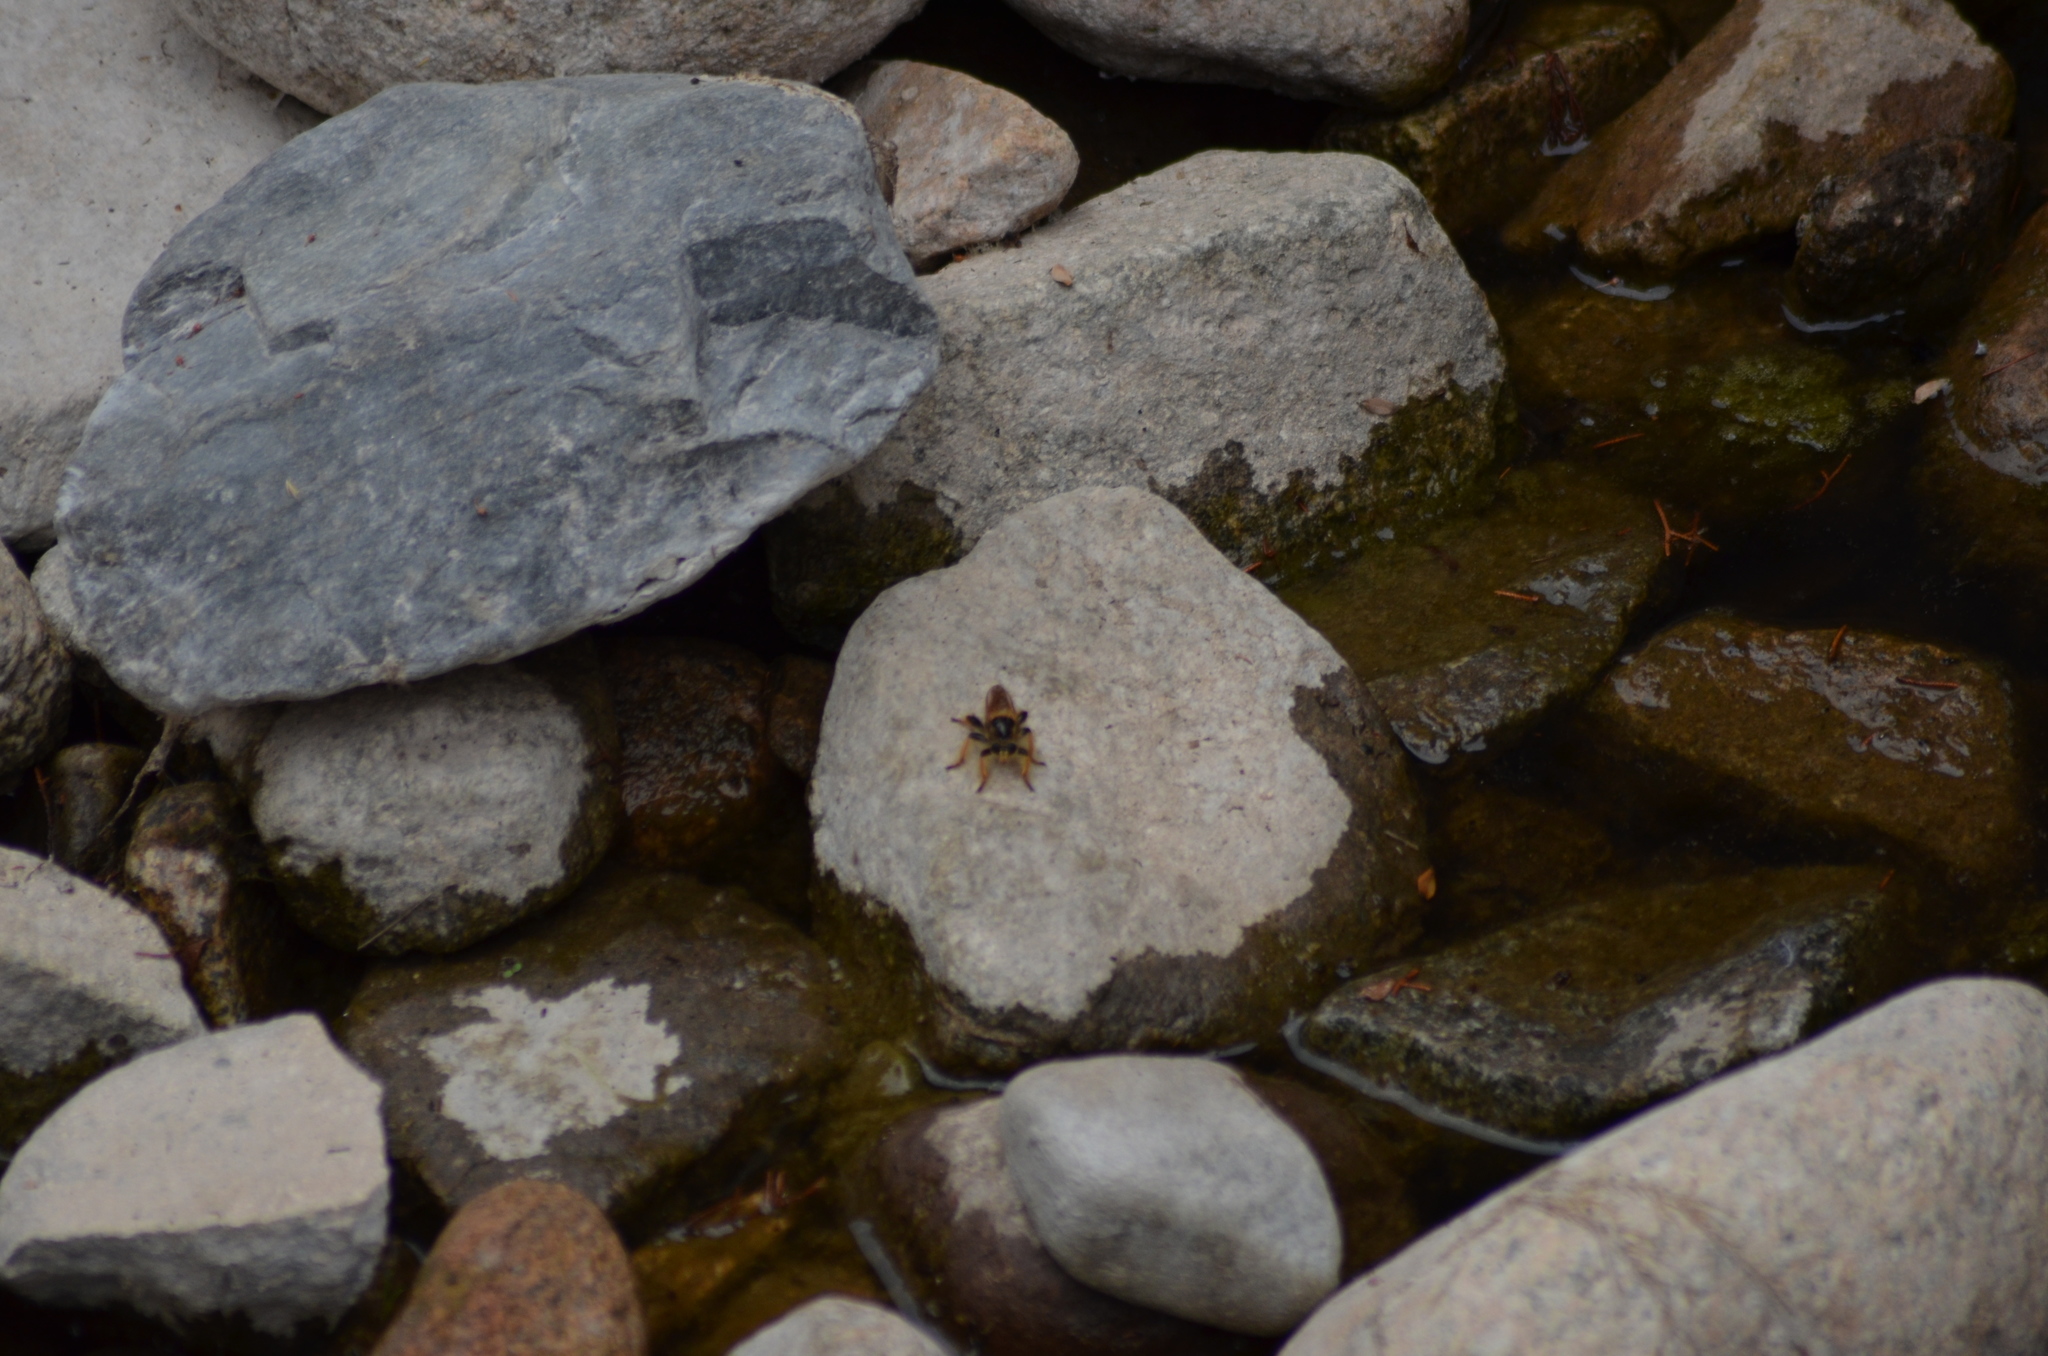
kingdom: Animalia
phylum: Arthropoda
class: Insecta
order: Diptera
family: Asilidae
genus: Pogonosoma
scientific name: Pogonosoma maroccanum
